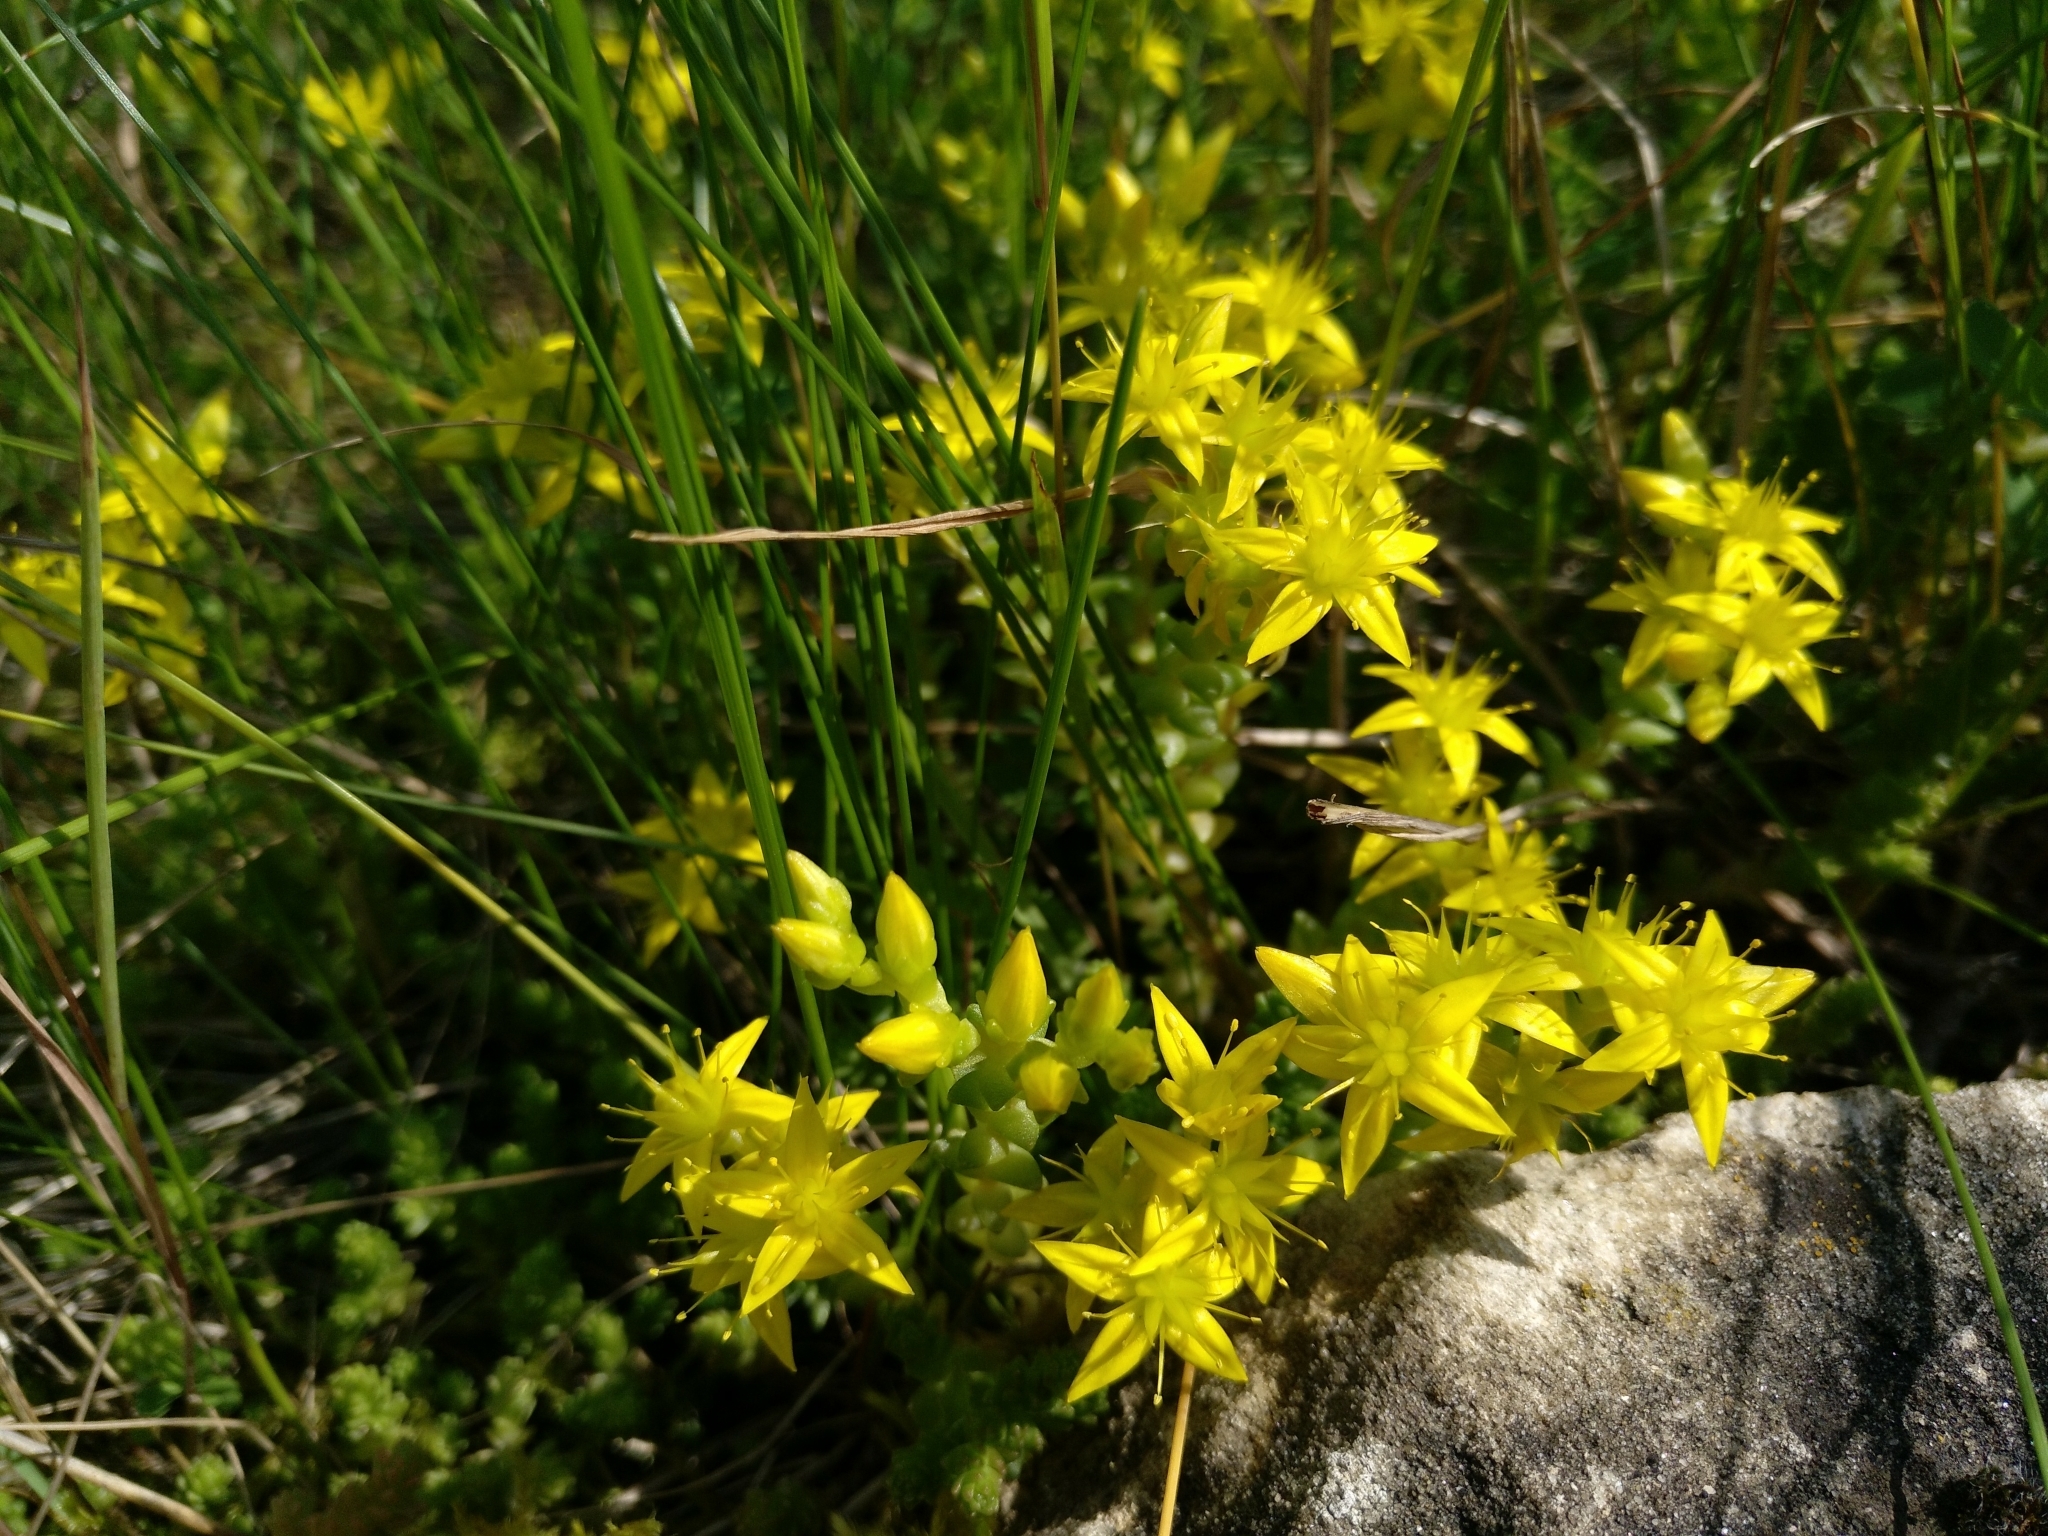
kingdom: Plantae
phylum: Tracheophyta
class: Magnoliopsida
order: Saxifragales
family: Crassulaceae
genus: Sedum
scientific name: Sedum acre
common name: Biting stonecrop
